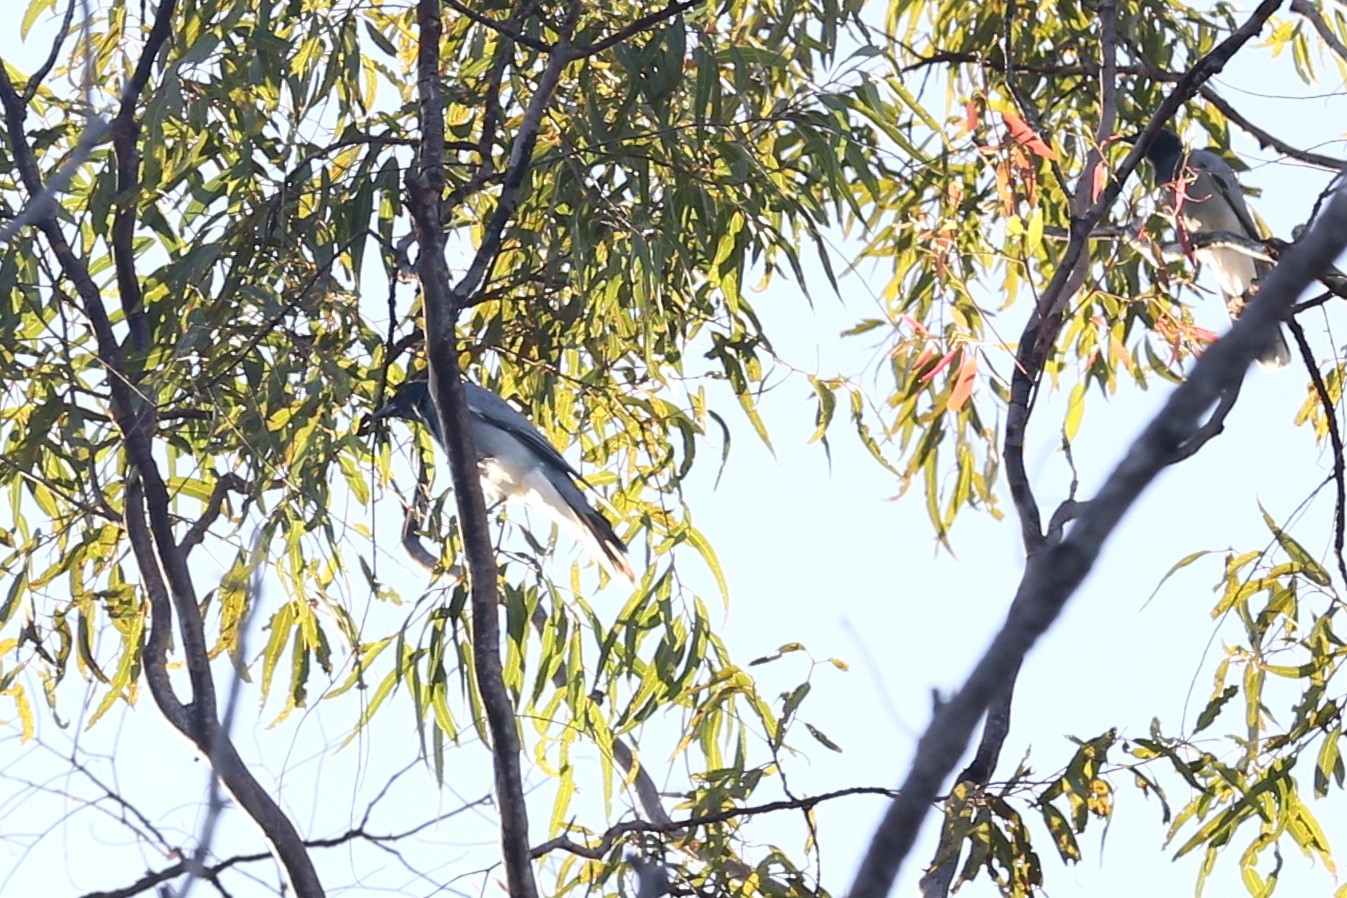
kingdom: Animalia
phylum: Chordata
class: Aves
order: Passeriformes
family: Campephagidae
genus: Coracina
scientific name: Coracina novaehollandiae
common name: Black-faced cuckooshrike
